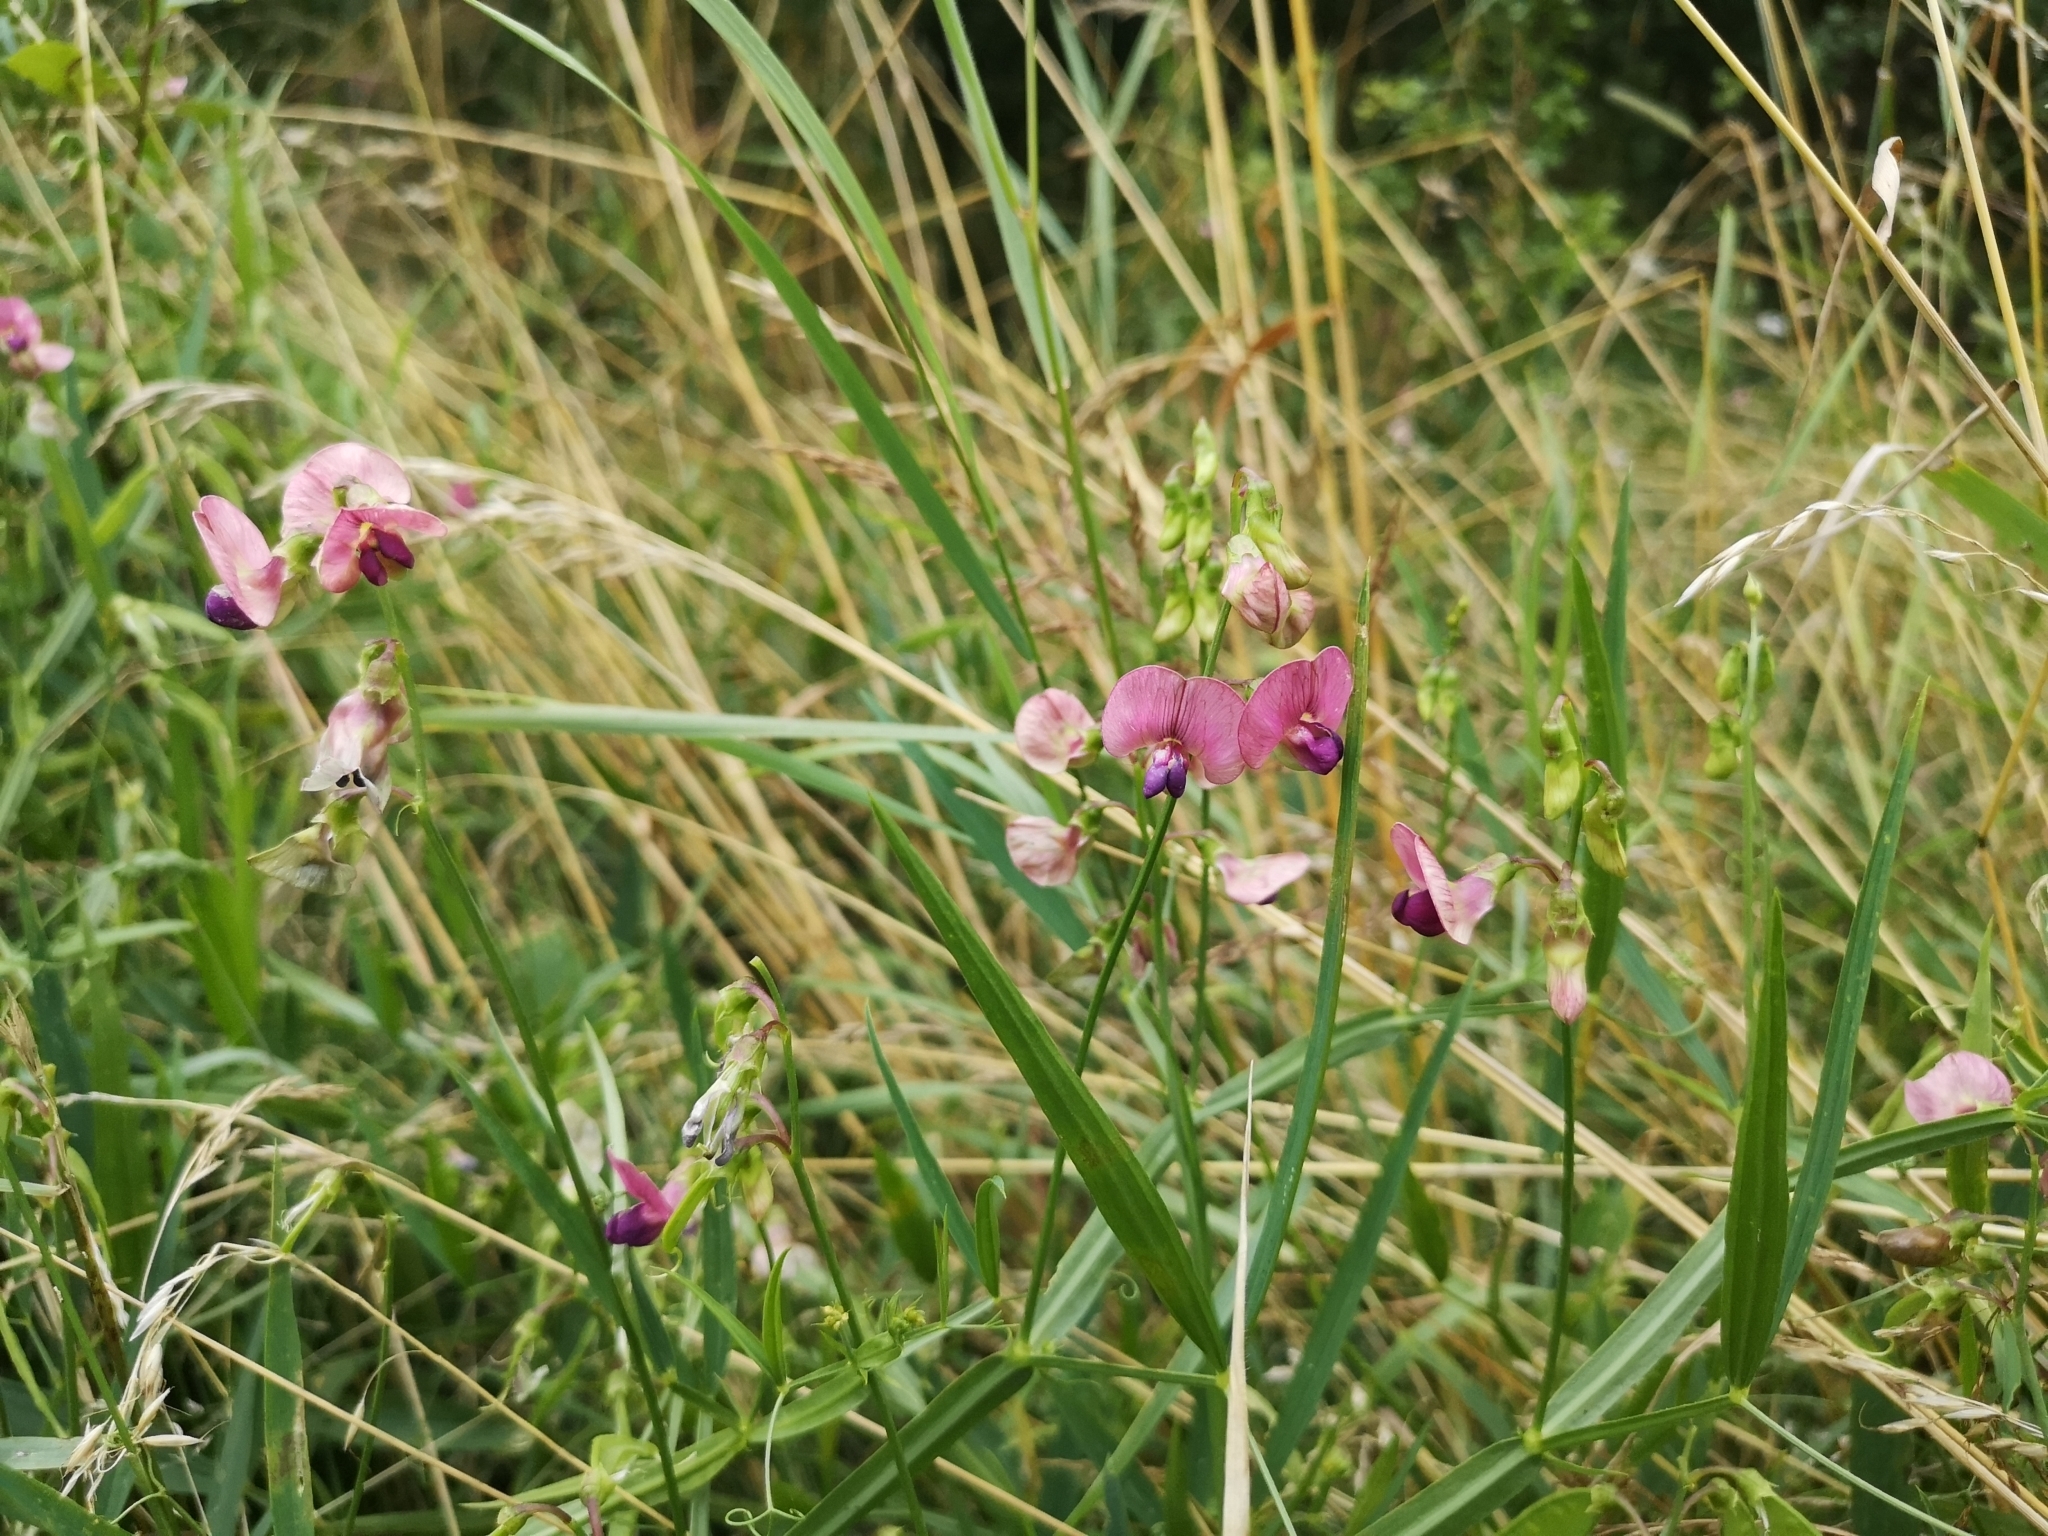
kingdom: Plantae
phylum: Tracheophyta
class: Magnoliopsida
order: Fabales
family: Fabaceae
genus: Lathyrus
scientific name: Lathyrus sylvestris
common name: Flat pea
